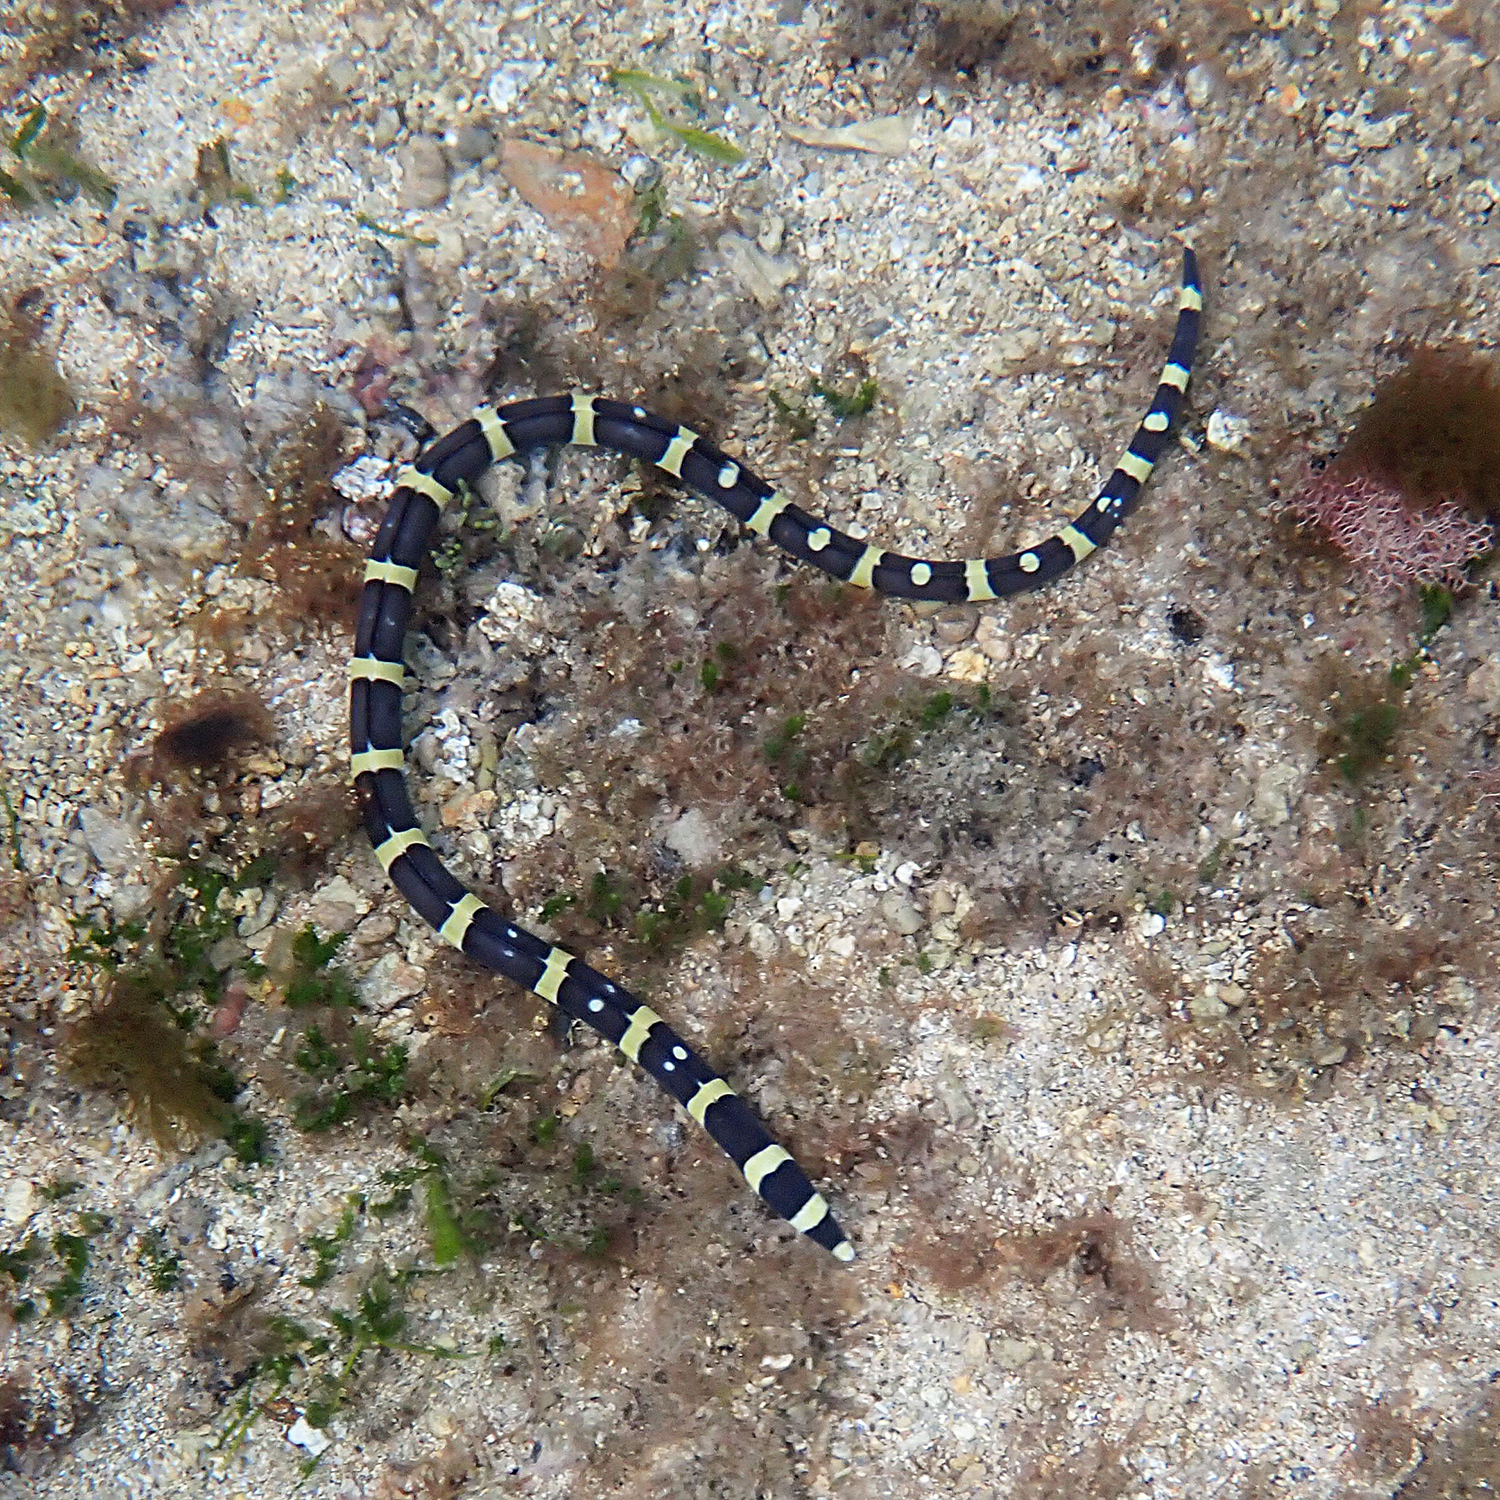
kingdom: Animalia
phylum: Chordata
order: Anguilliformes
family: Ophichthidae
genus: Leiuranus
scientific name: Leiuranus versicolor
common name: Convict snake eel
